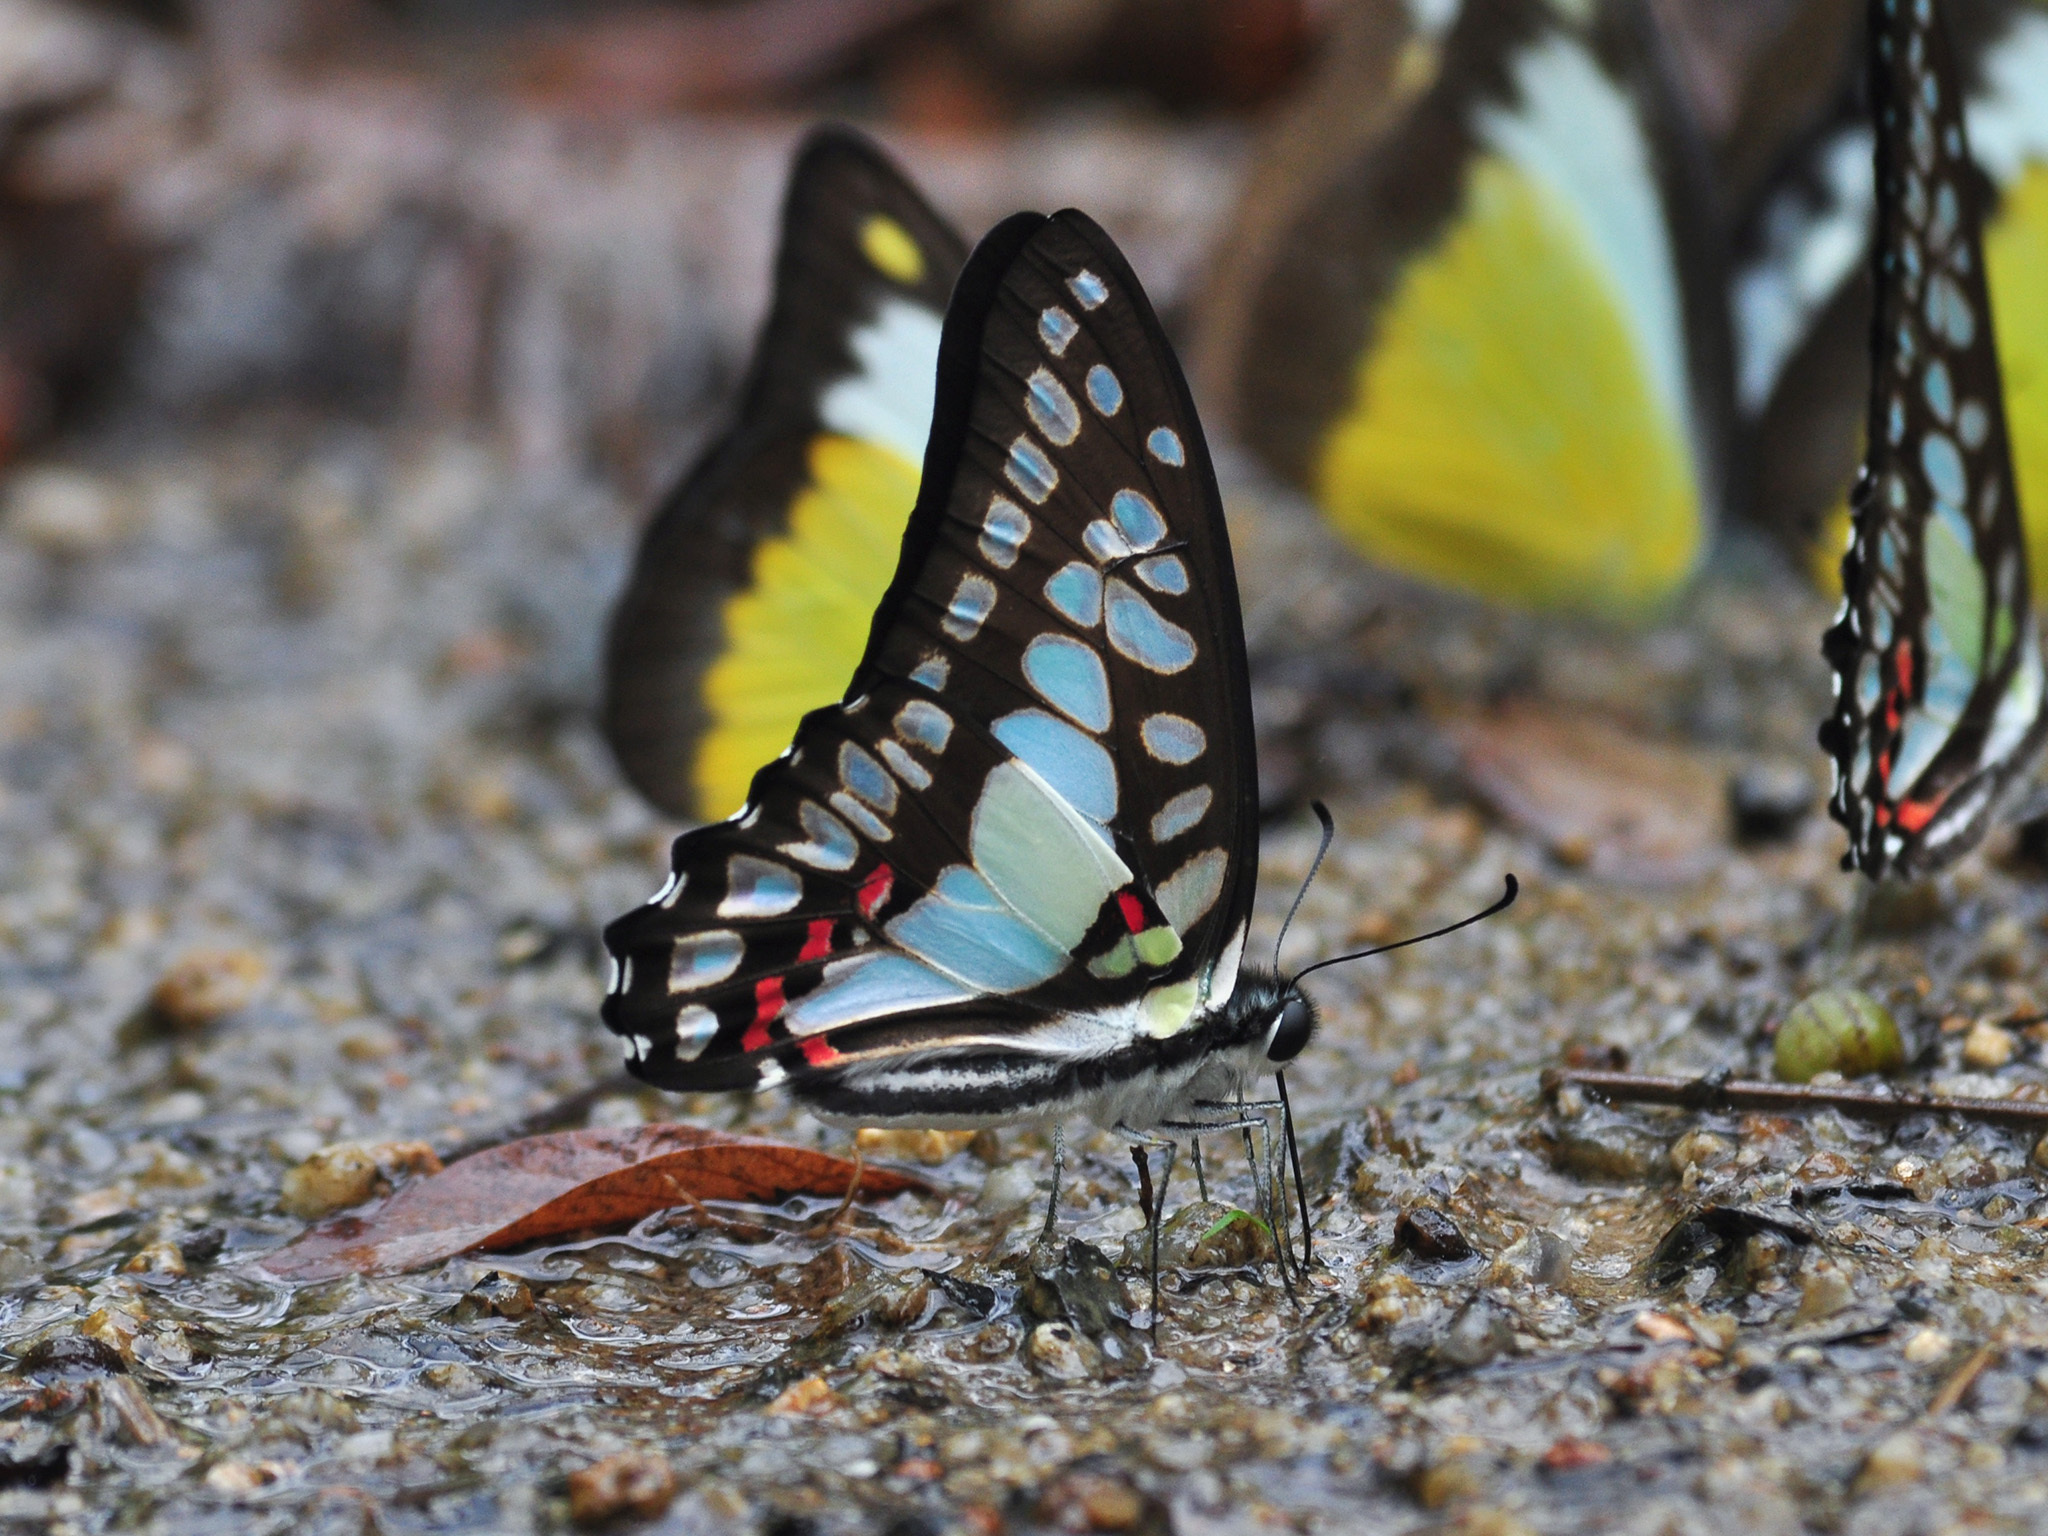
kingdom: Animalia
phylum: Arthropoda
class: Insecta
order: Lepidoptera
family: Papilionidae
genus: Graphium
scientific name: Graphium eurypylus
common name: Great jay
